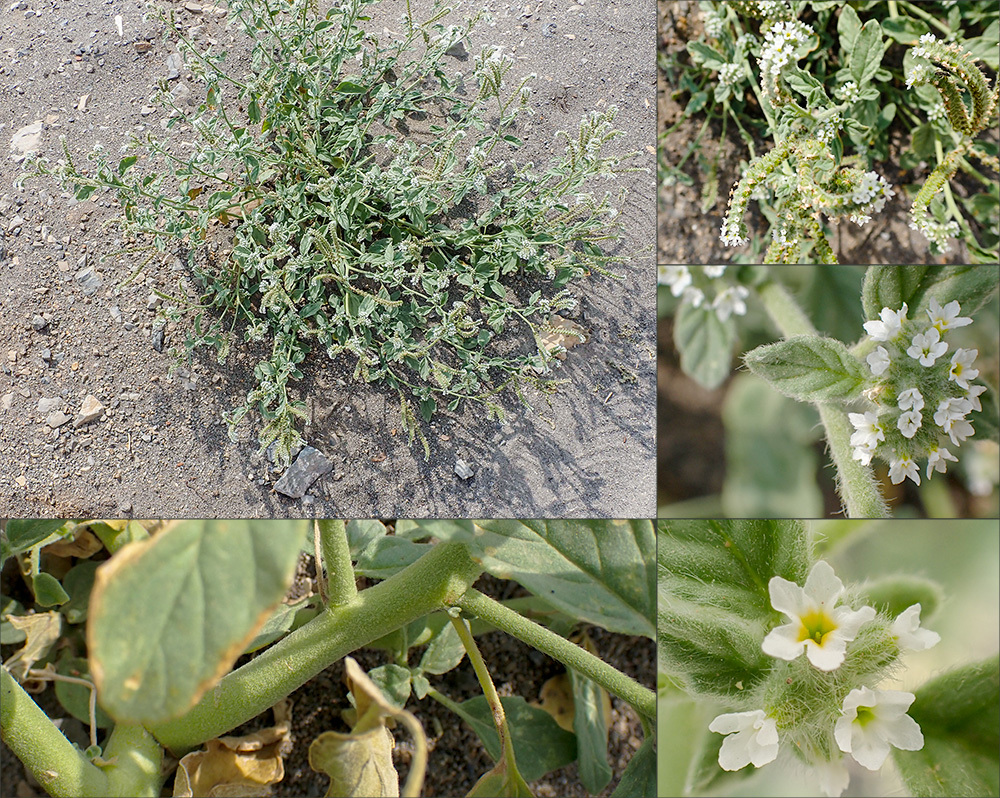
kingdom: Plantae
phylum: Tracheophyta
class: Magnoliopsida
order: Boraginales
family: Heliotropiaceae
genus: Heliotropium
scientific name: Heliotropium europaeum
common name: European heliotrope
